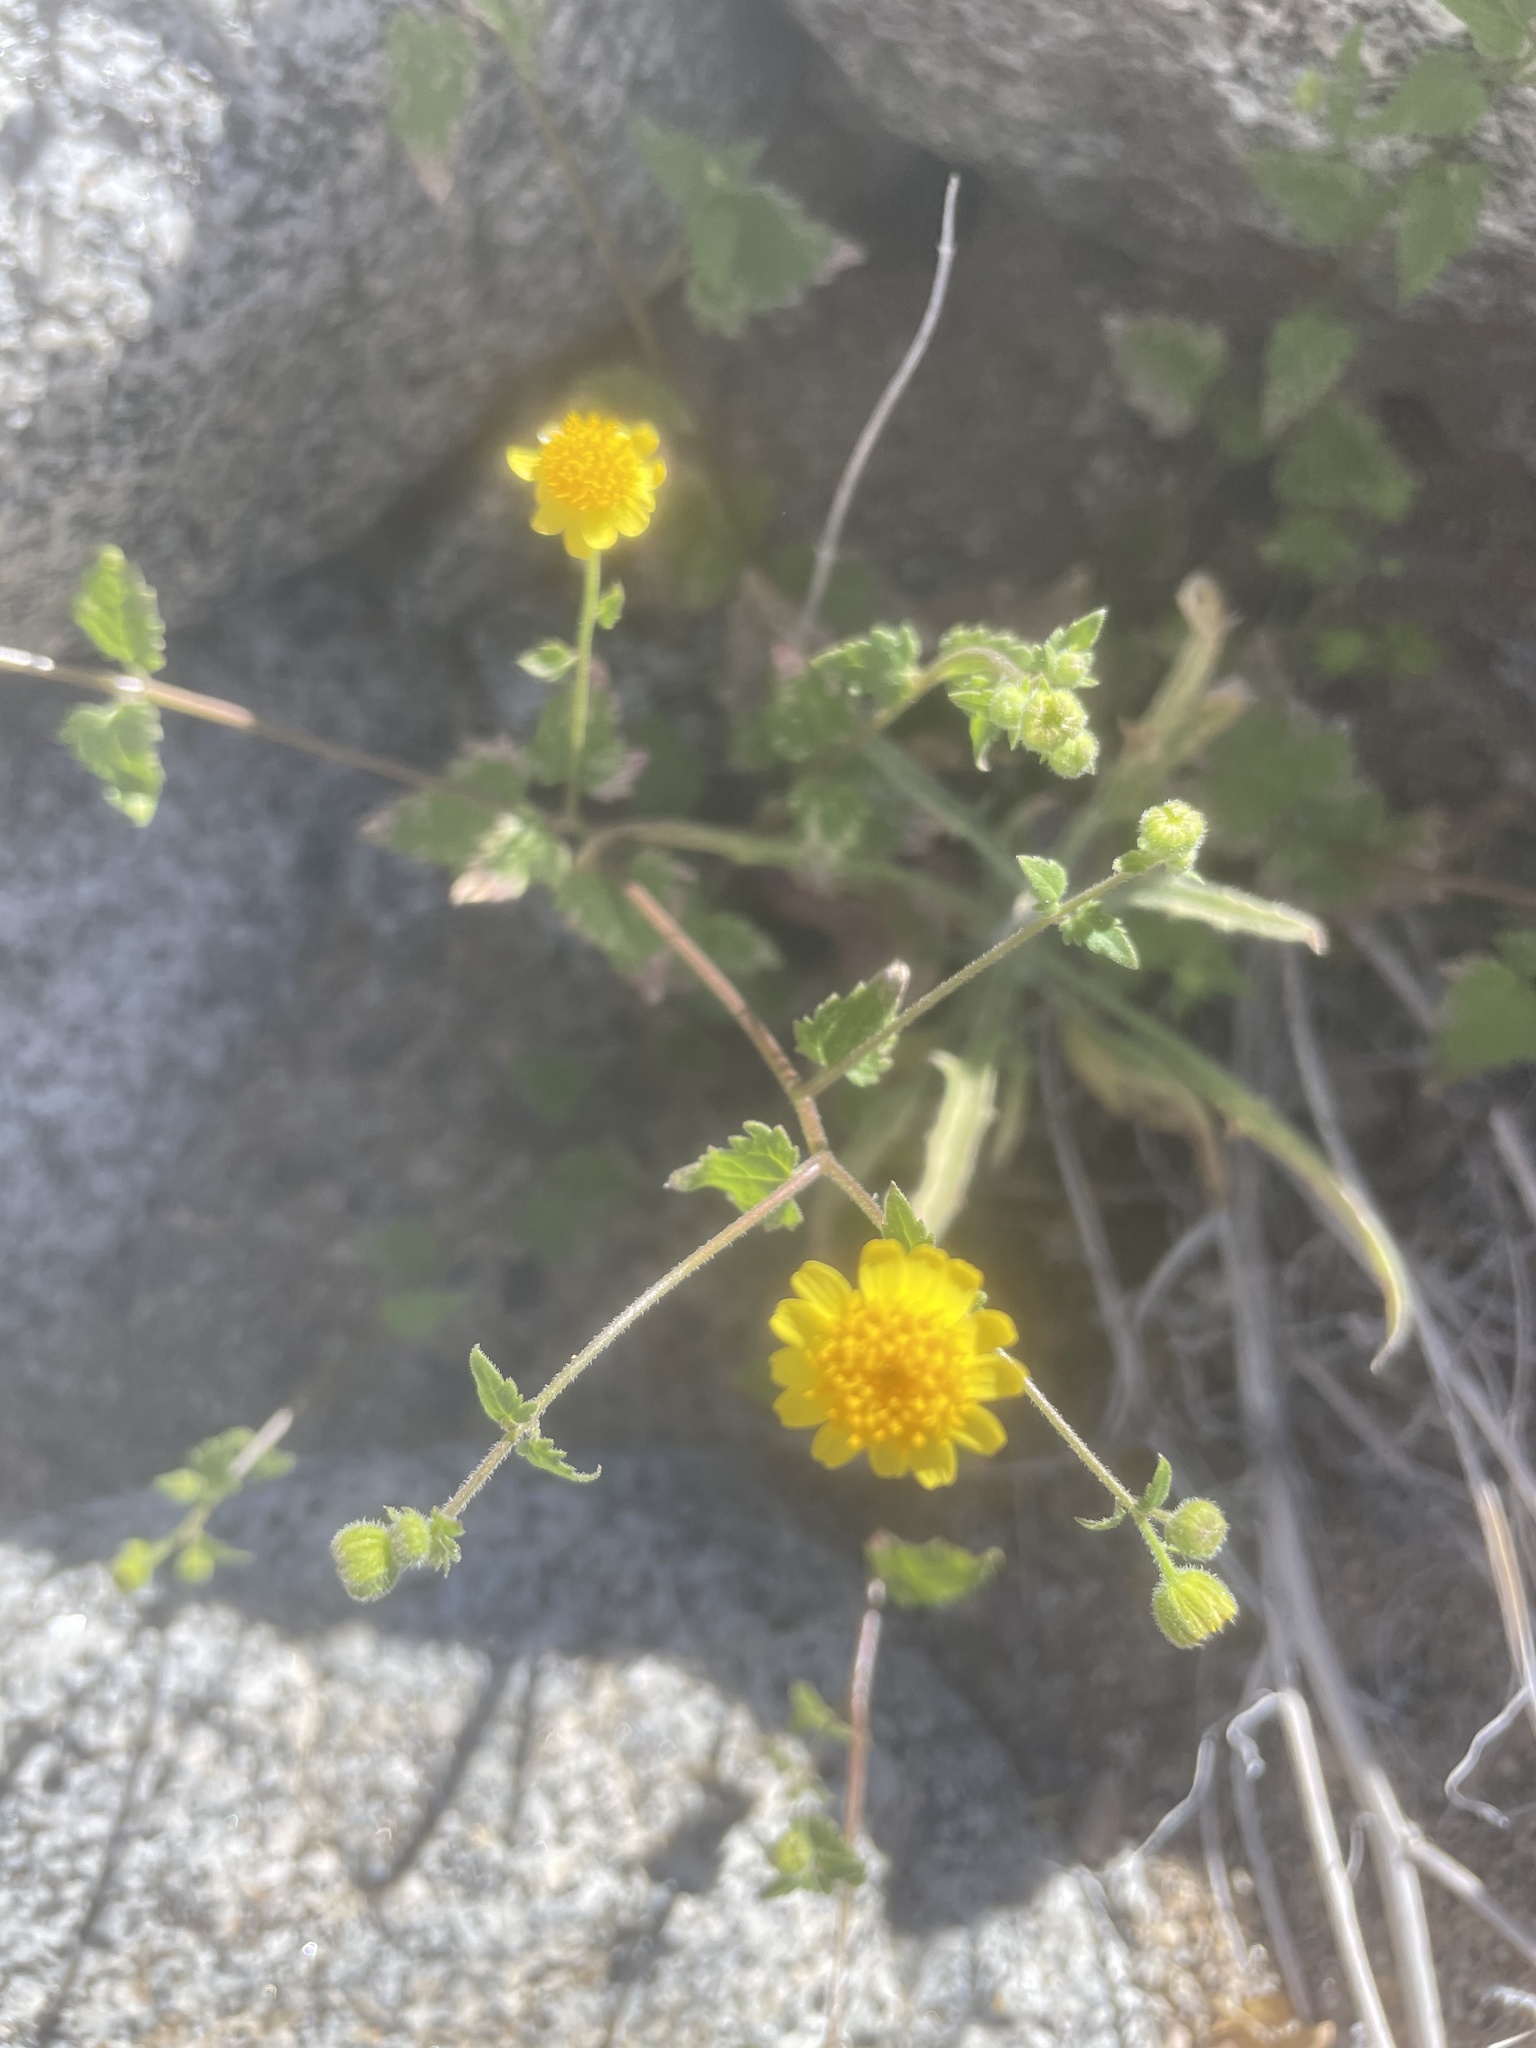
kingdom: Plantae
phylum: Tracheophyta
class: Magnoliopsida
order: Asterales
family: Asteraceae
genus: Perityle
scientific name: Perityle californica
